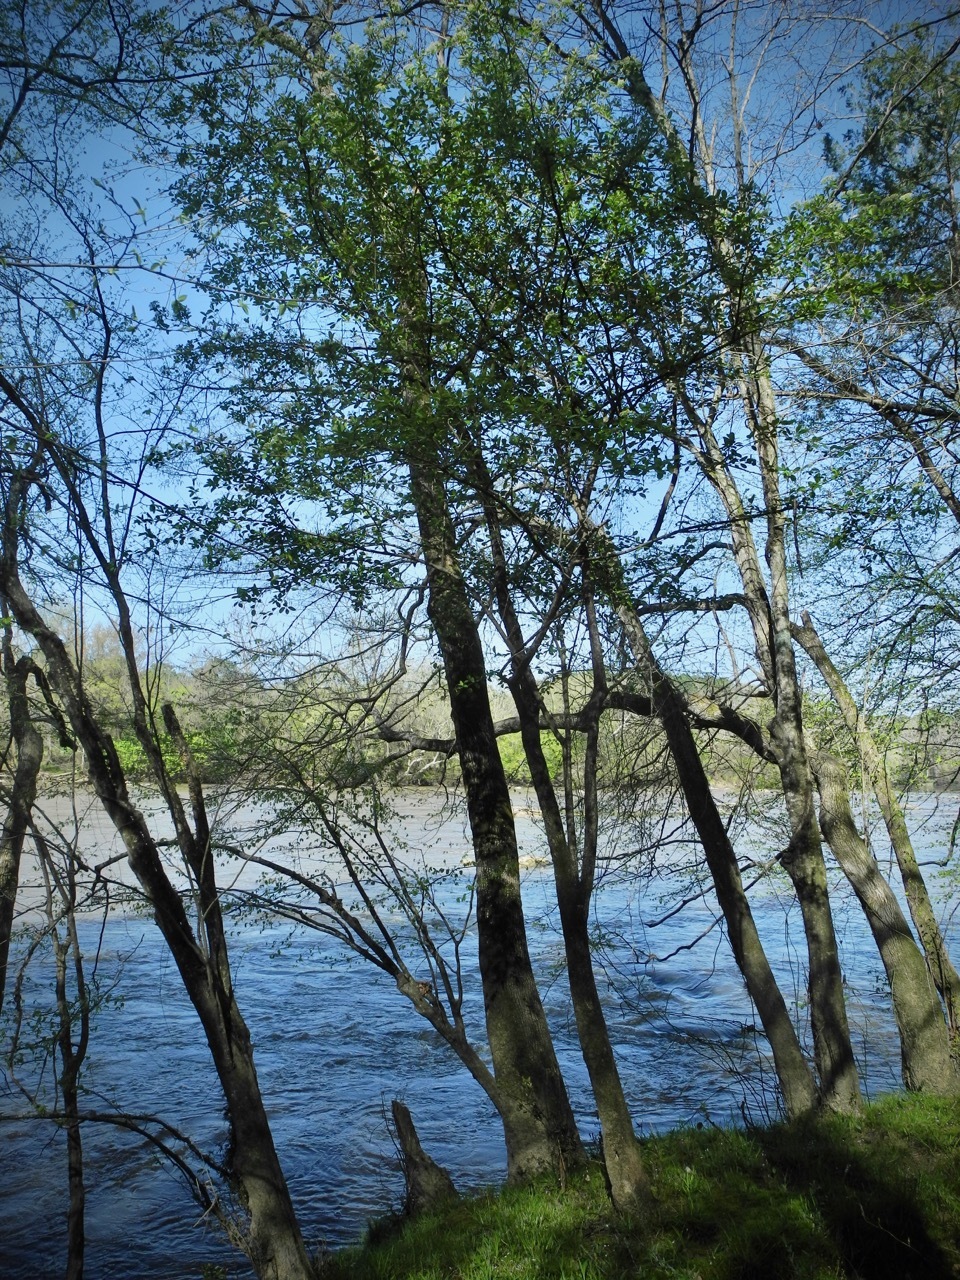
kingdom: Plantae
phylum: Tracheophyta
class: Magnoliopsida
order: Dipsacales
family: Viburnaceae
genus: Viburnum
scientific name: Viburnum prunifolium
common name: Black haw
